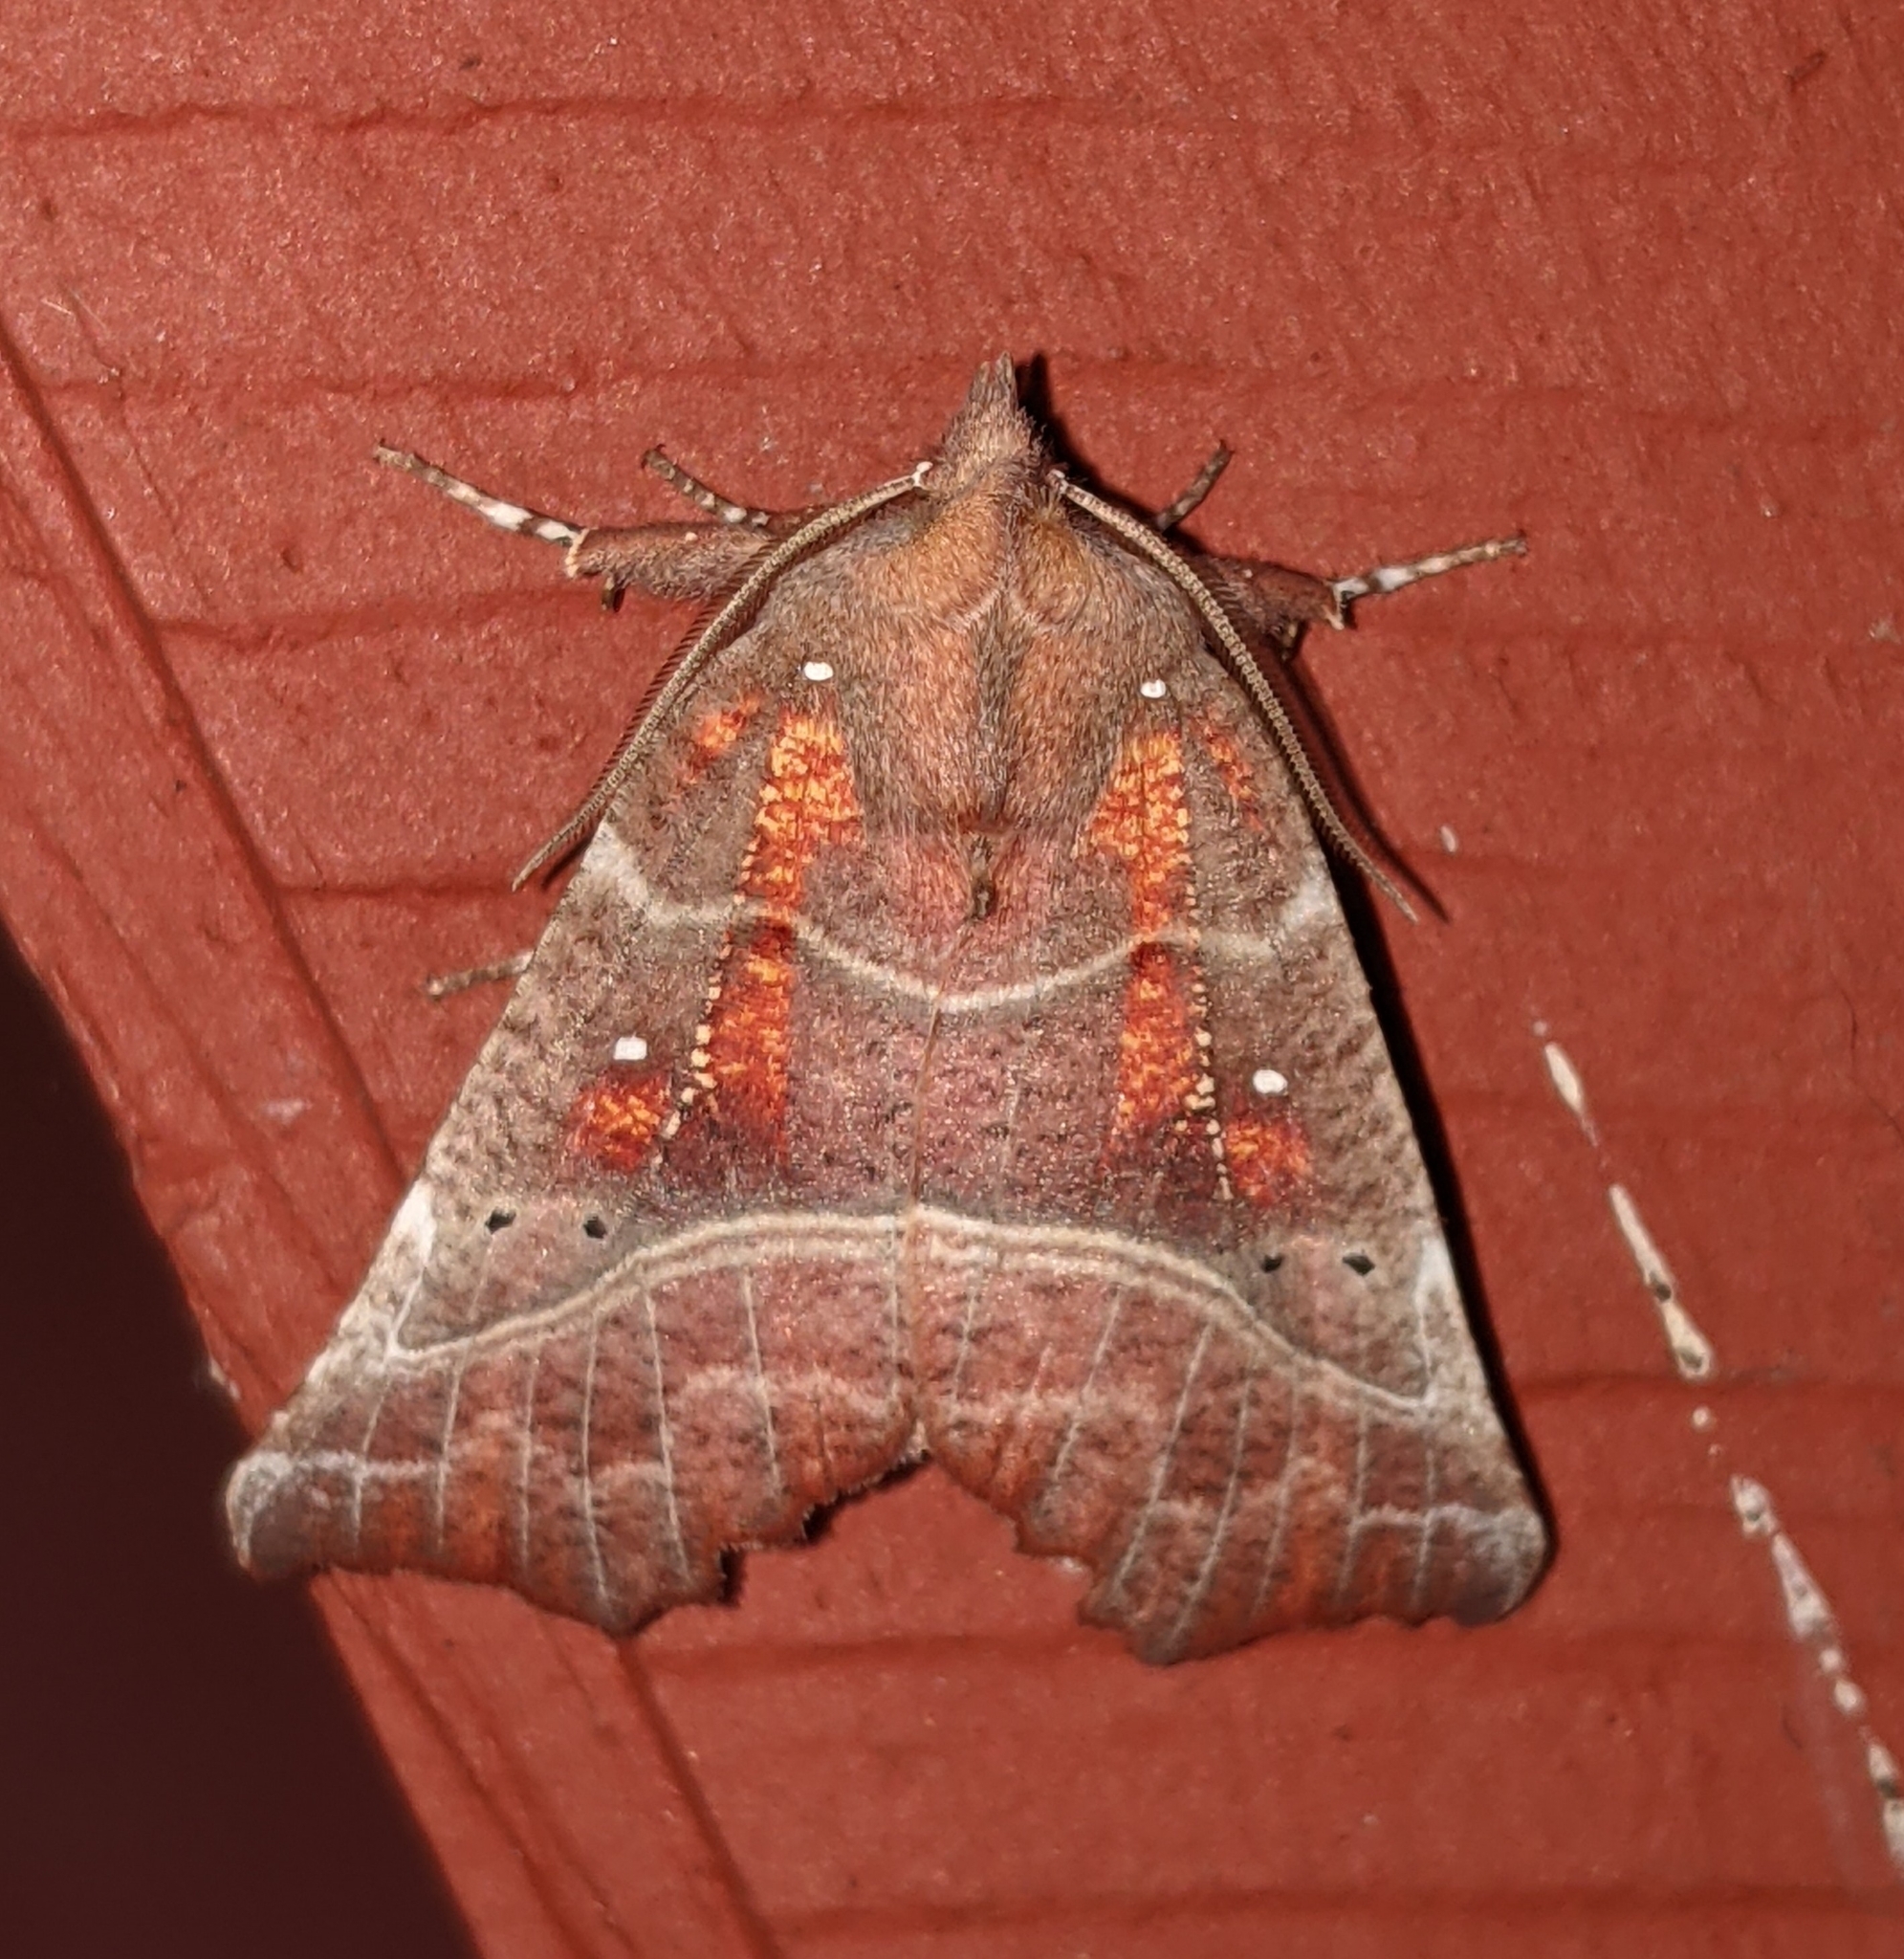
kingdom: Animalia
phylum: Arthropoda
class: Insecta
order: Lepidoptera
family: Erebidae
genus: Scoliopteryx
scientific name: Scoliopteryx libatrix
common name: Herald
